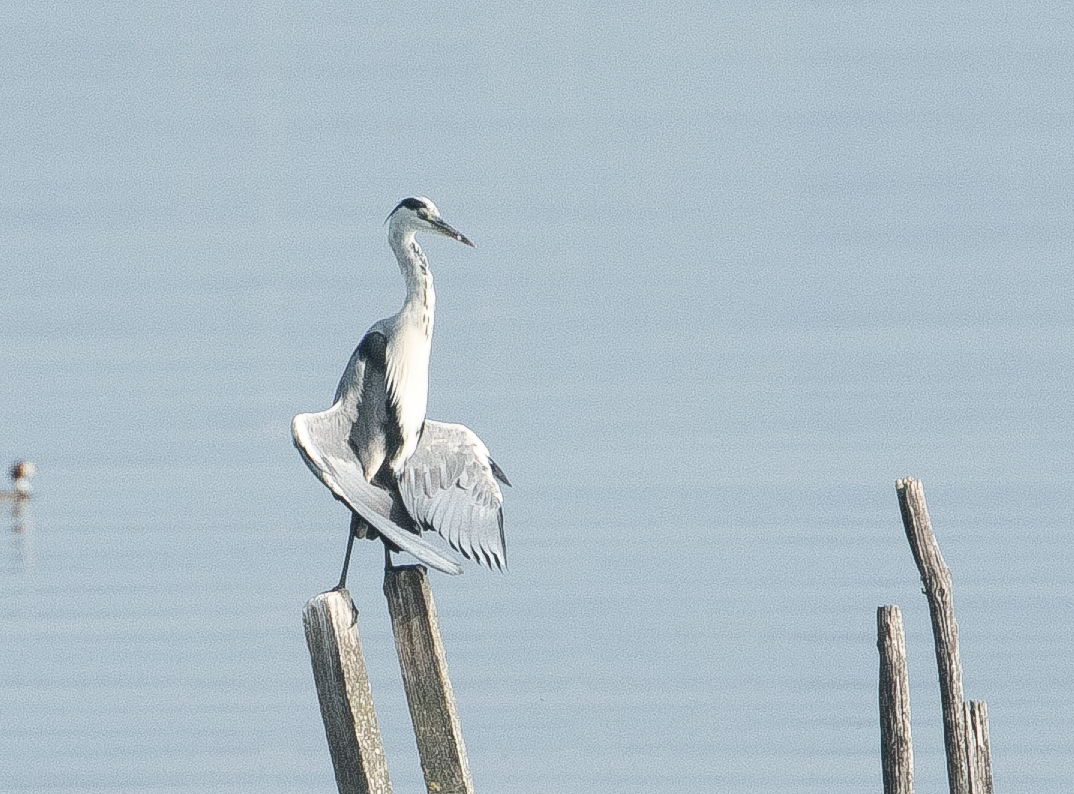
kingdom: Animalia
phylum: Chordata
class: Aves
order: Pelecaniformes
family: Ardeidae
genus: Ardea
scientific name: Ardea cinerea
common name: Grey heron
